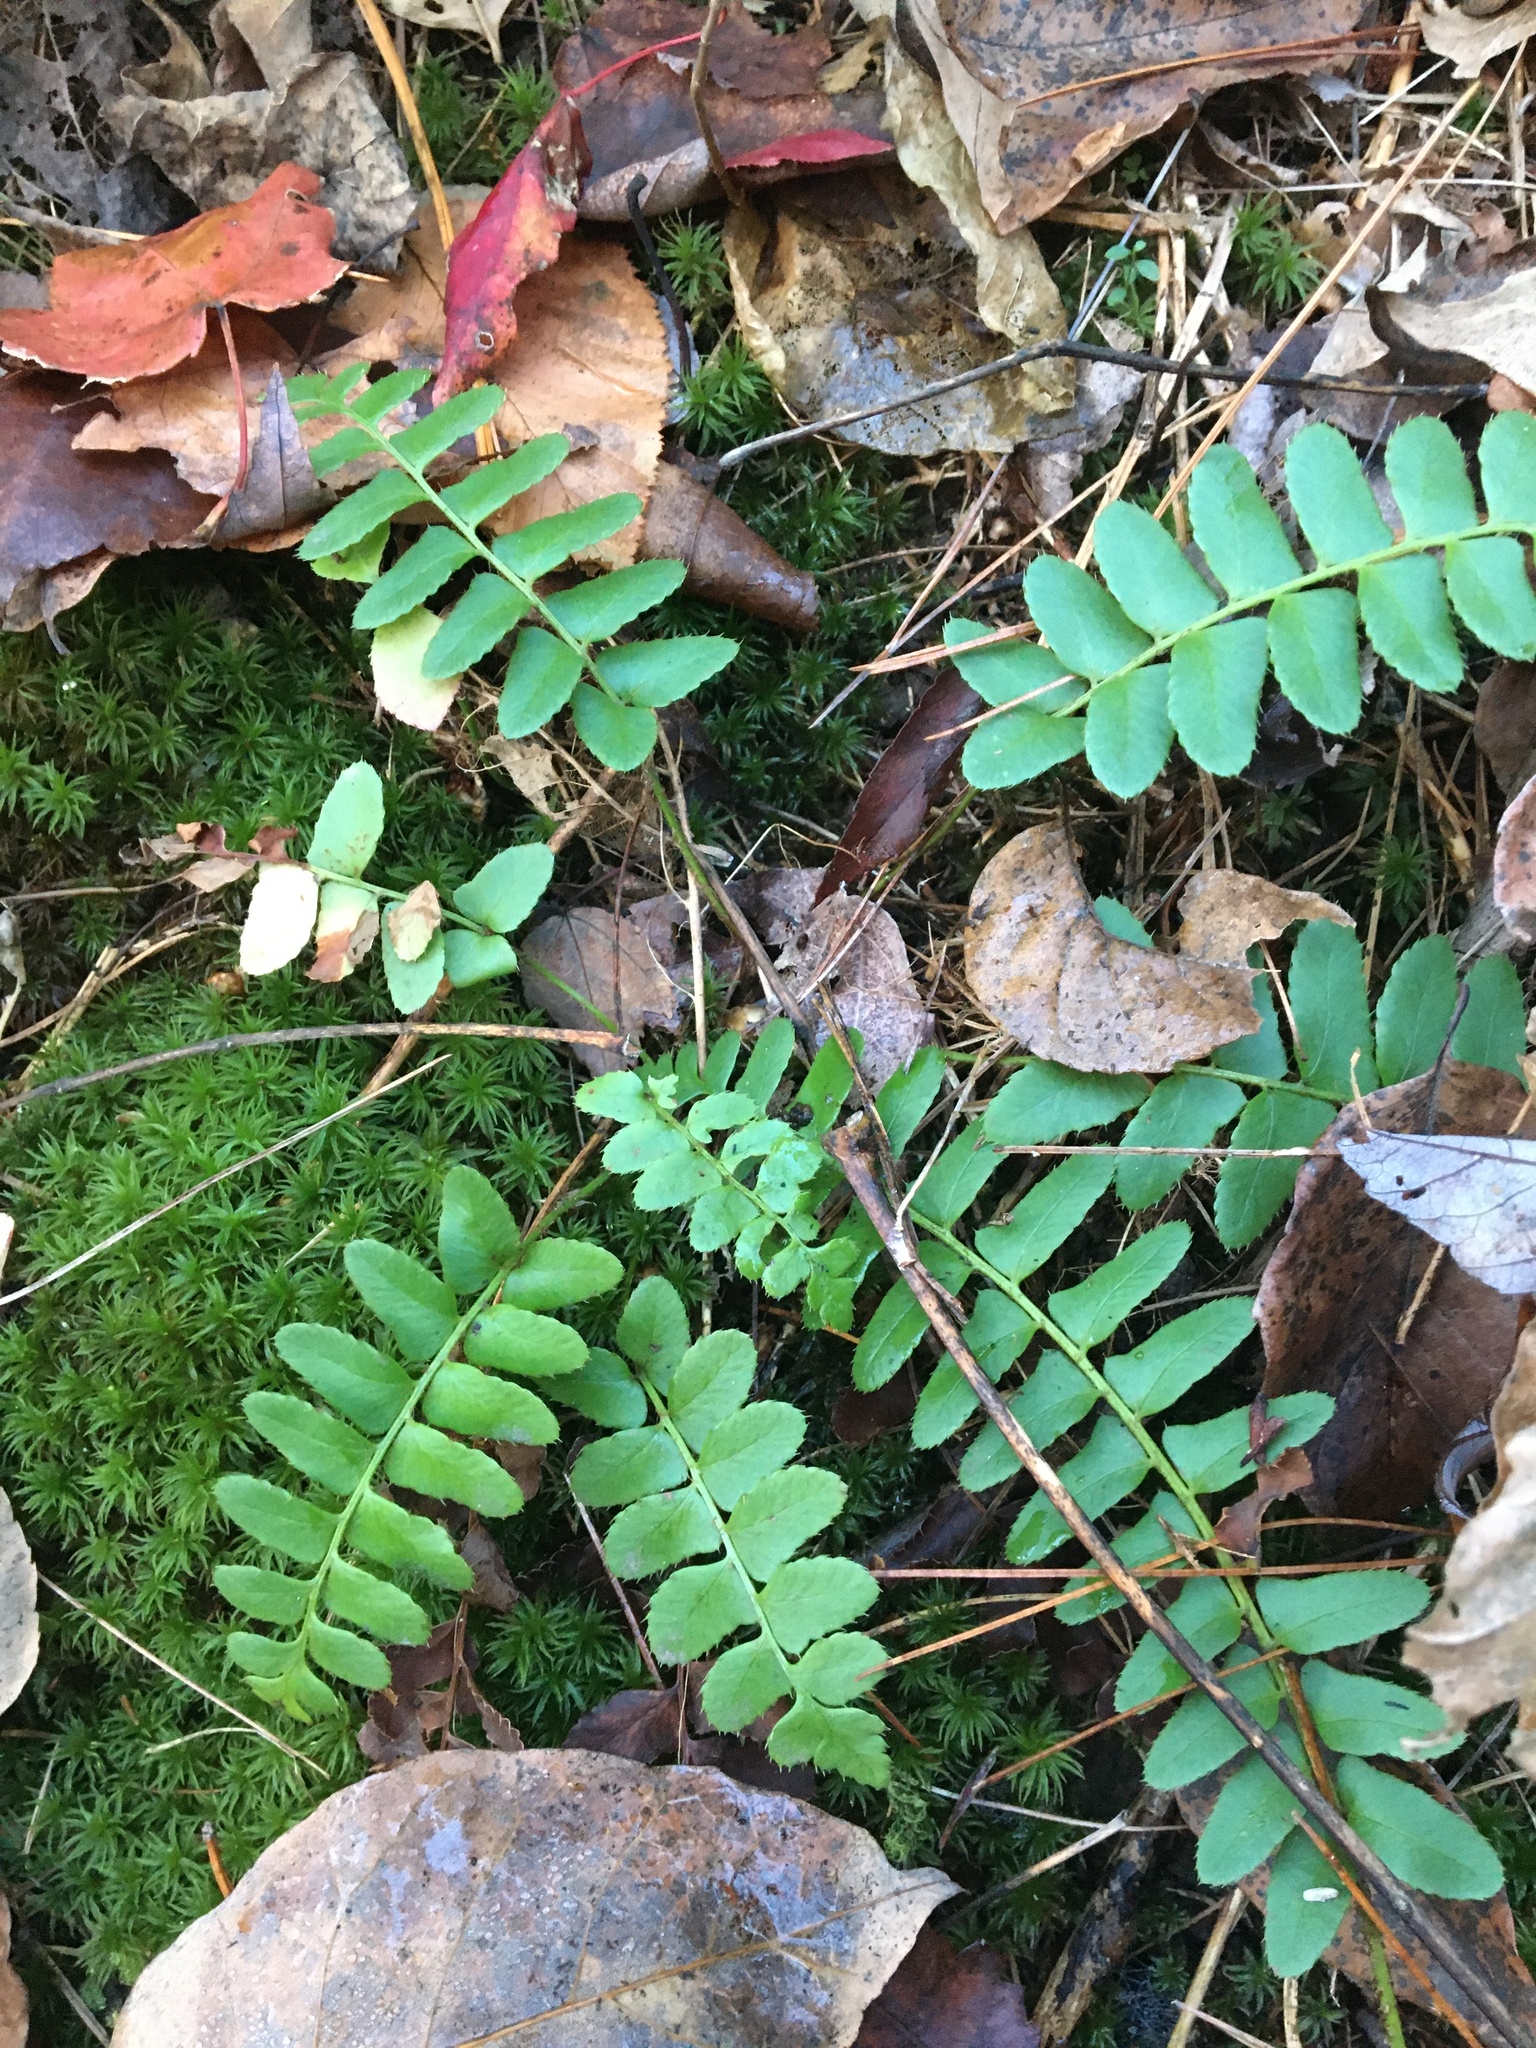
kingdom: Plantae
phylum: Tracheophyta
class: Polypodiopsida
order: Polypodiales
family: Dryopteridaceae
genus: Polystichum
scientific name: Polystichum acrostichoides
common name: Christmas fern
